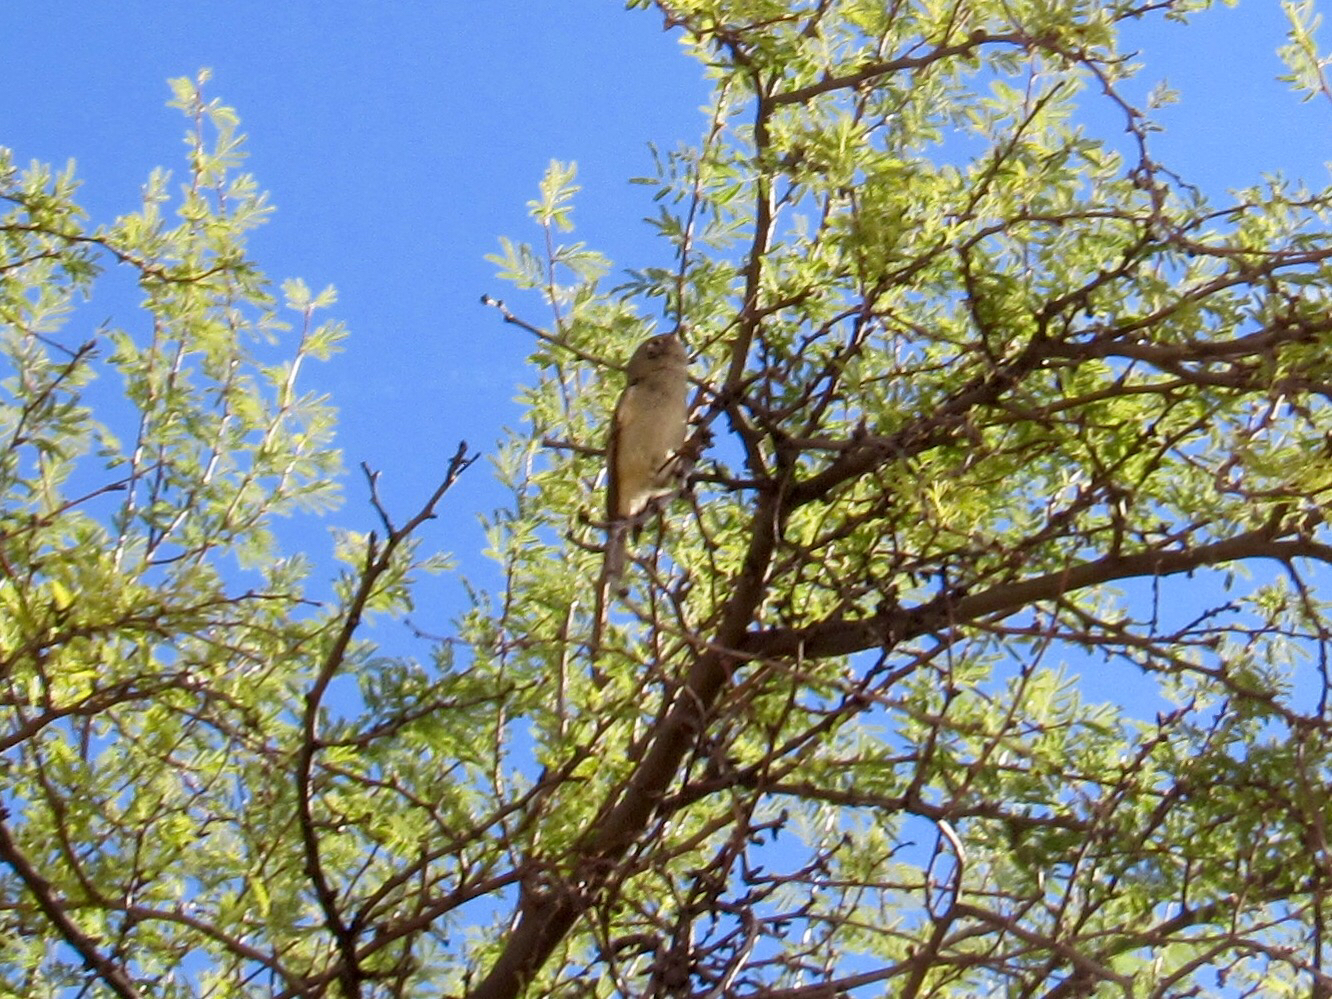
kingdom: Animalia
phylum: Chordata
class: Aves
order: Passeriformes
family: Regulidae
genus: Regulus
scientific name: Regulus calendula
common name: Ruby-crowned kinglet
